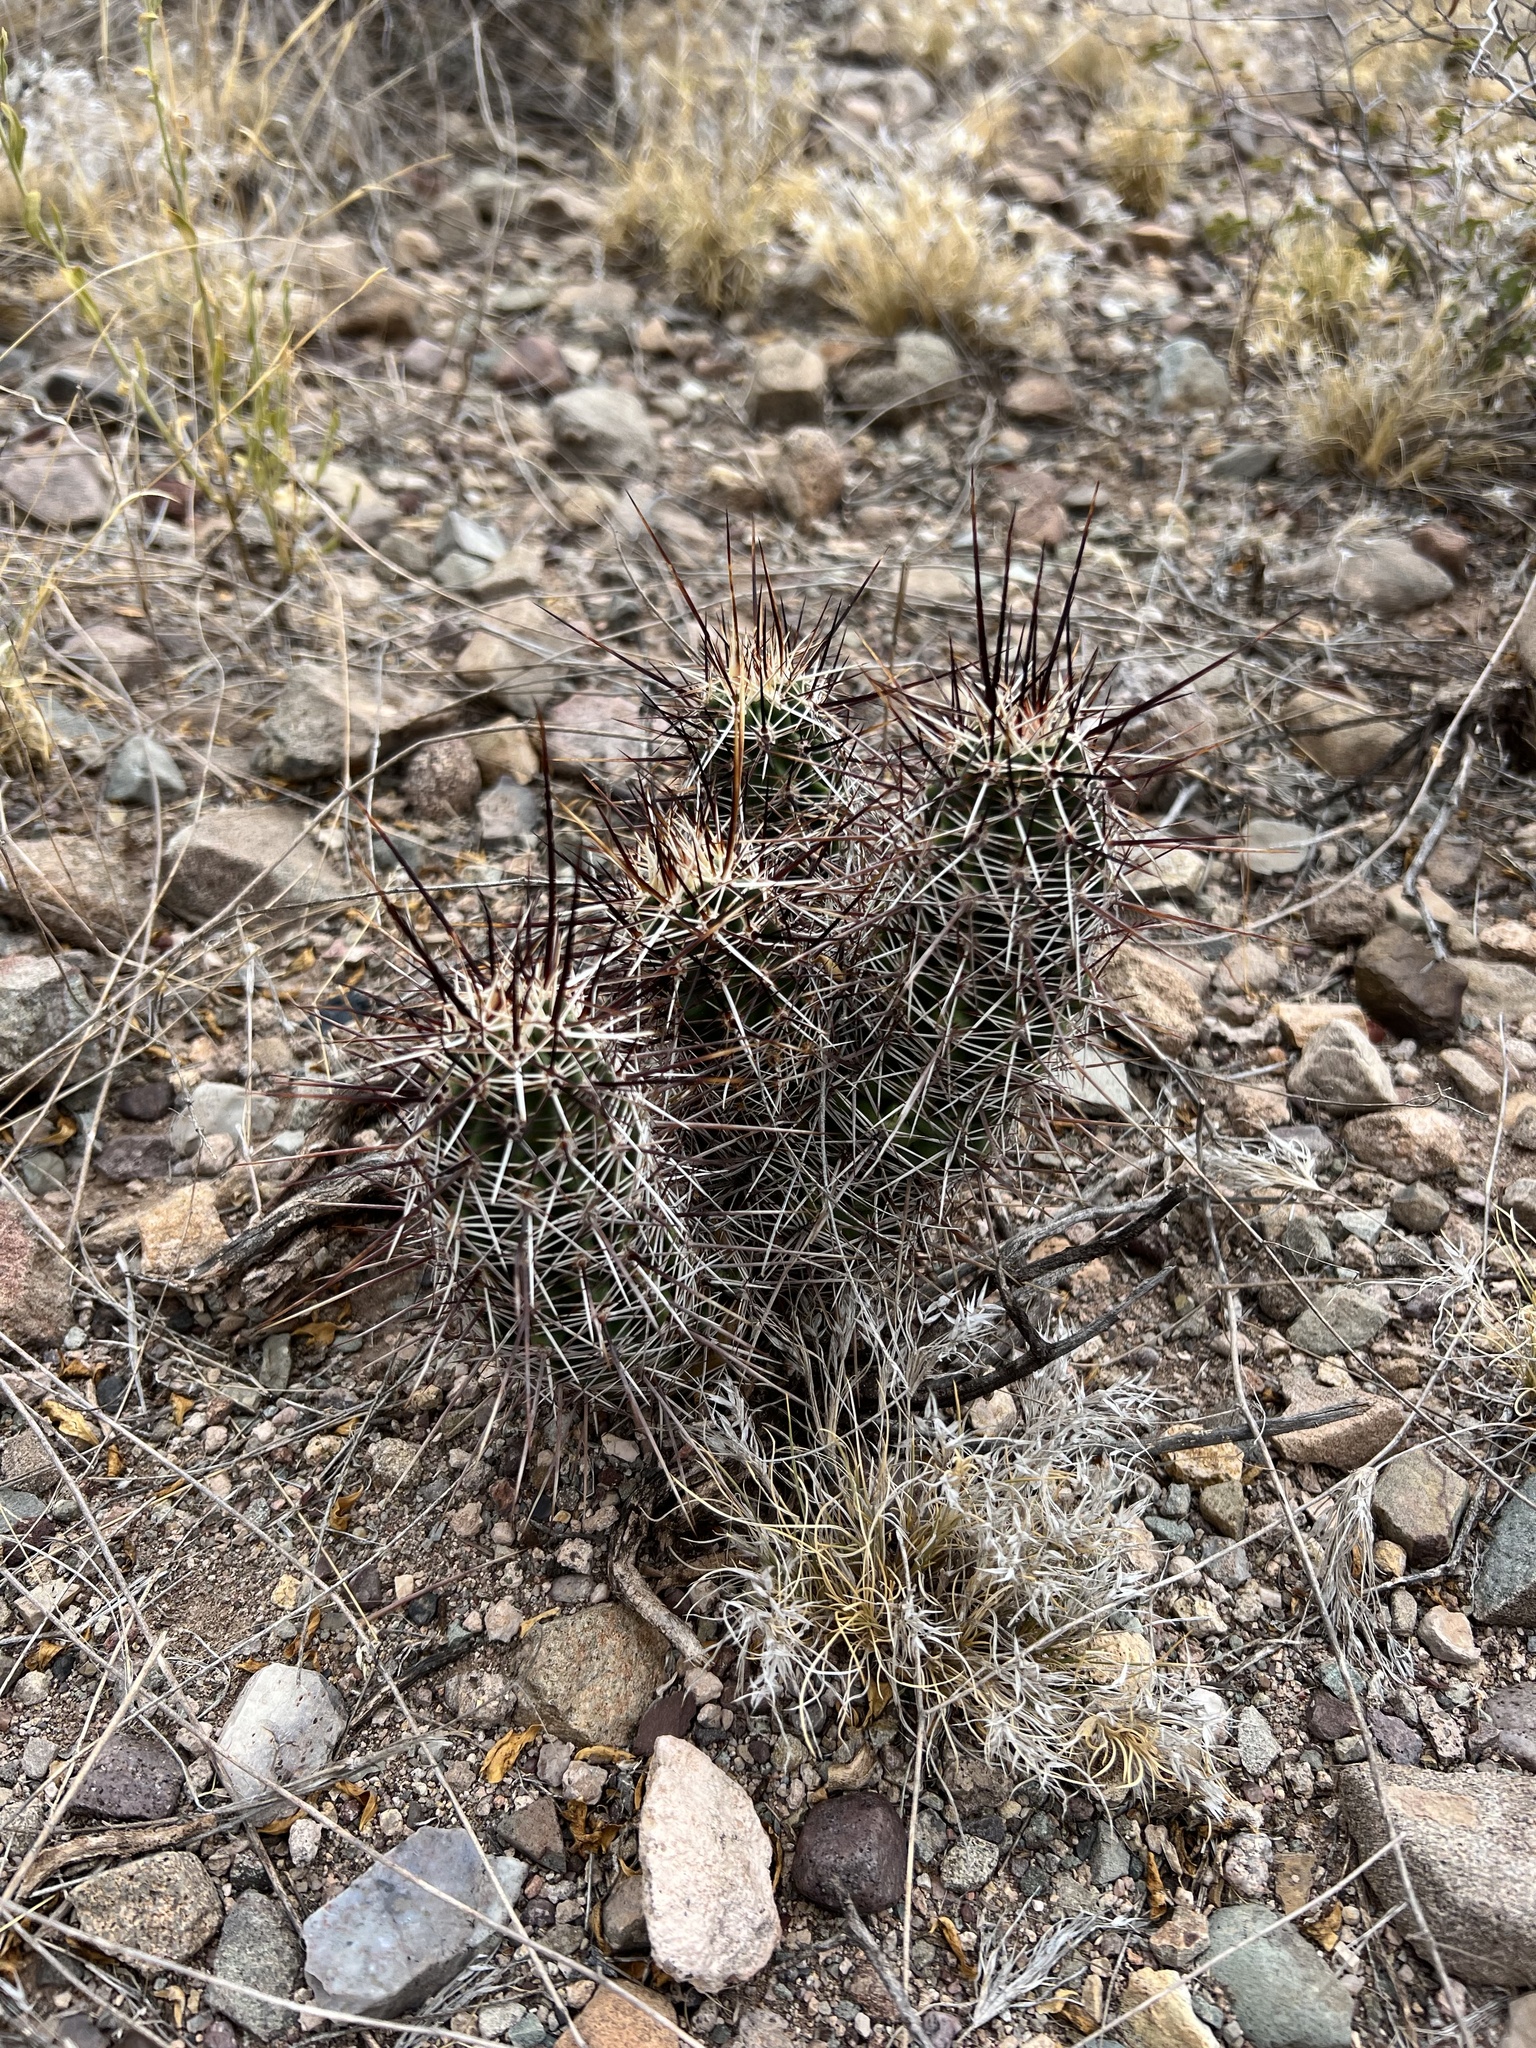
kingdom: Plantae
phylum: Tracheophyta
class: Magnoliopsida
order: Caryophyllales
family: Cactaceae
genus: Echinocereus
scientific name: Echinocereus fasciculatus
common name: Bundle hedgehog
